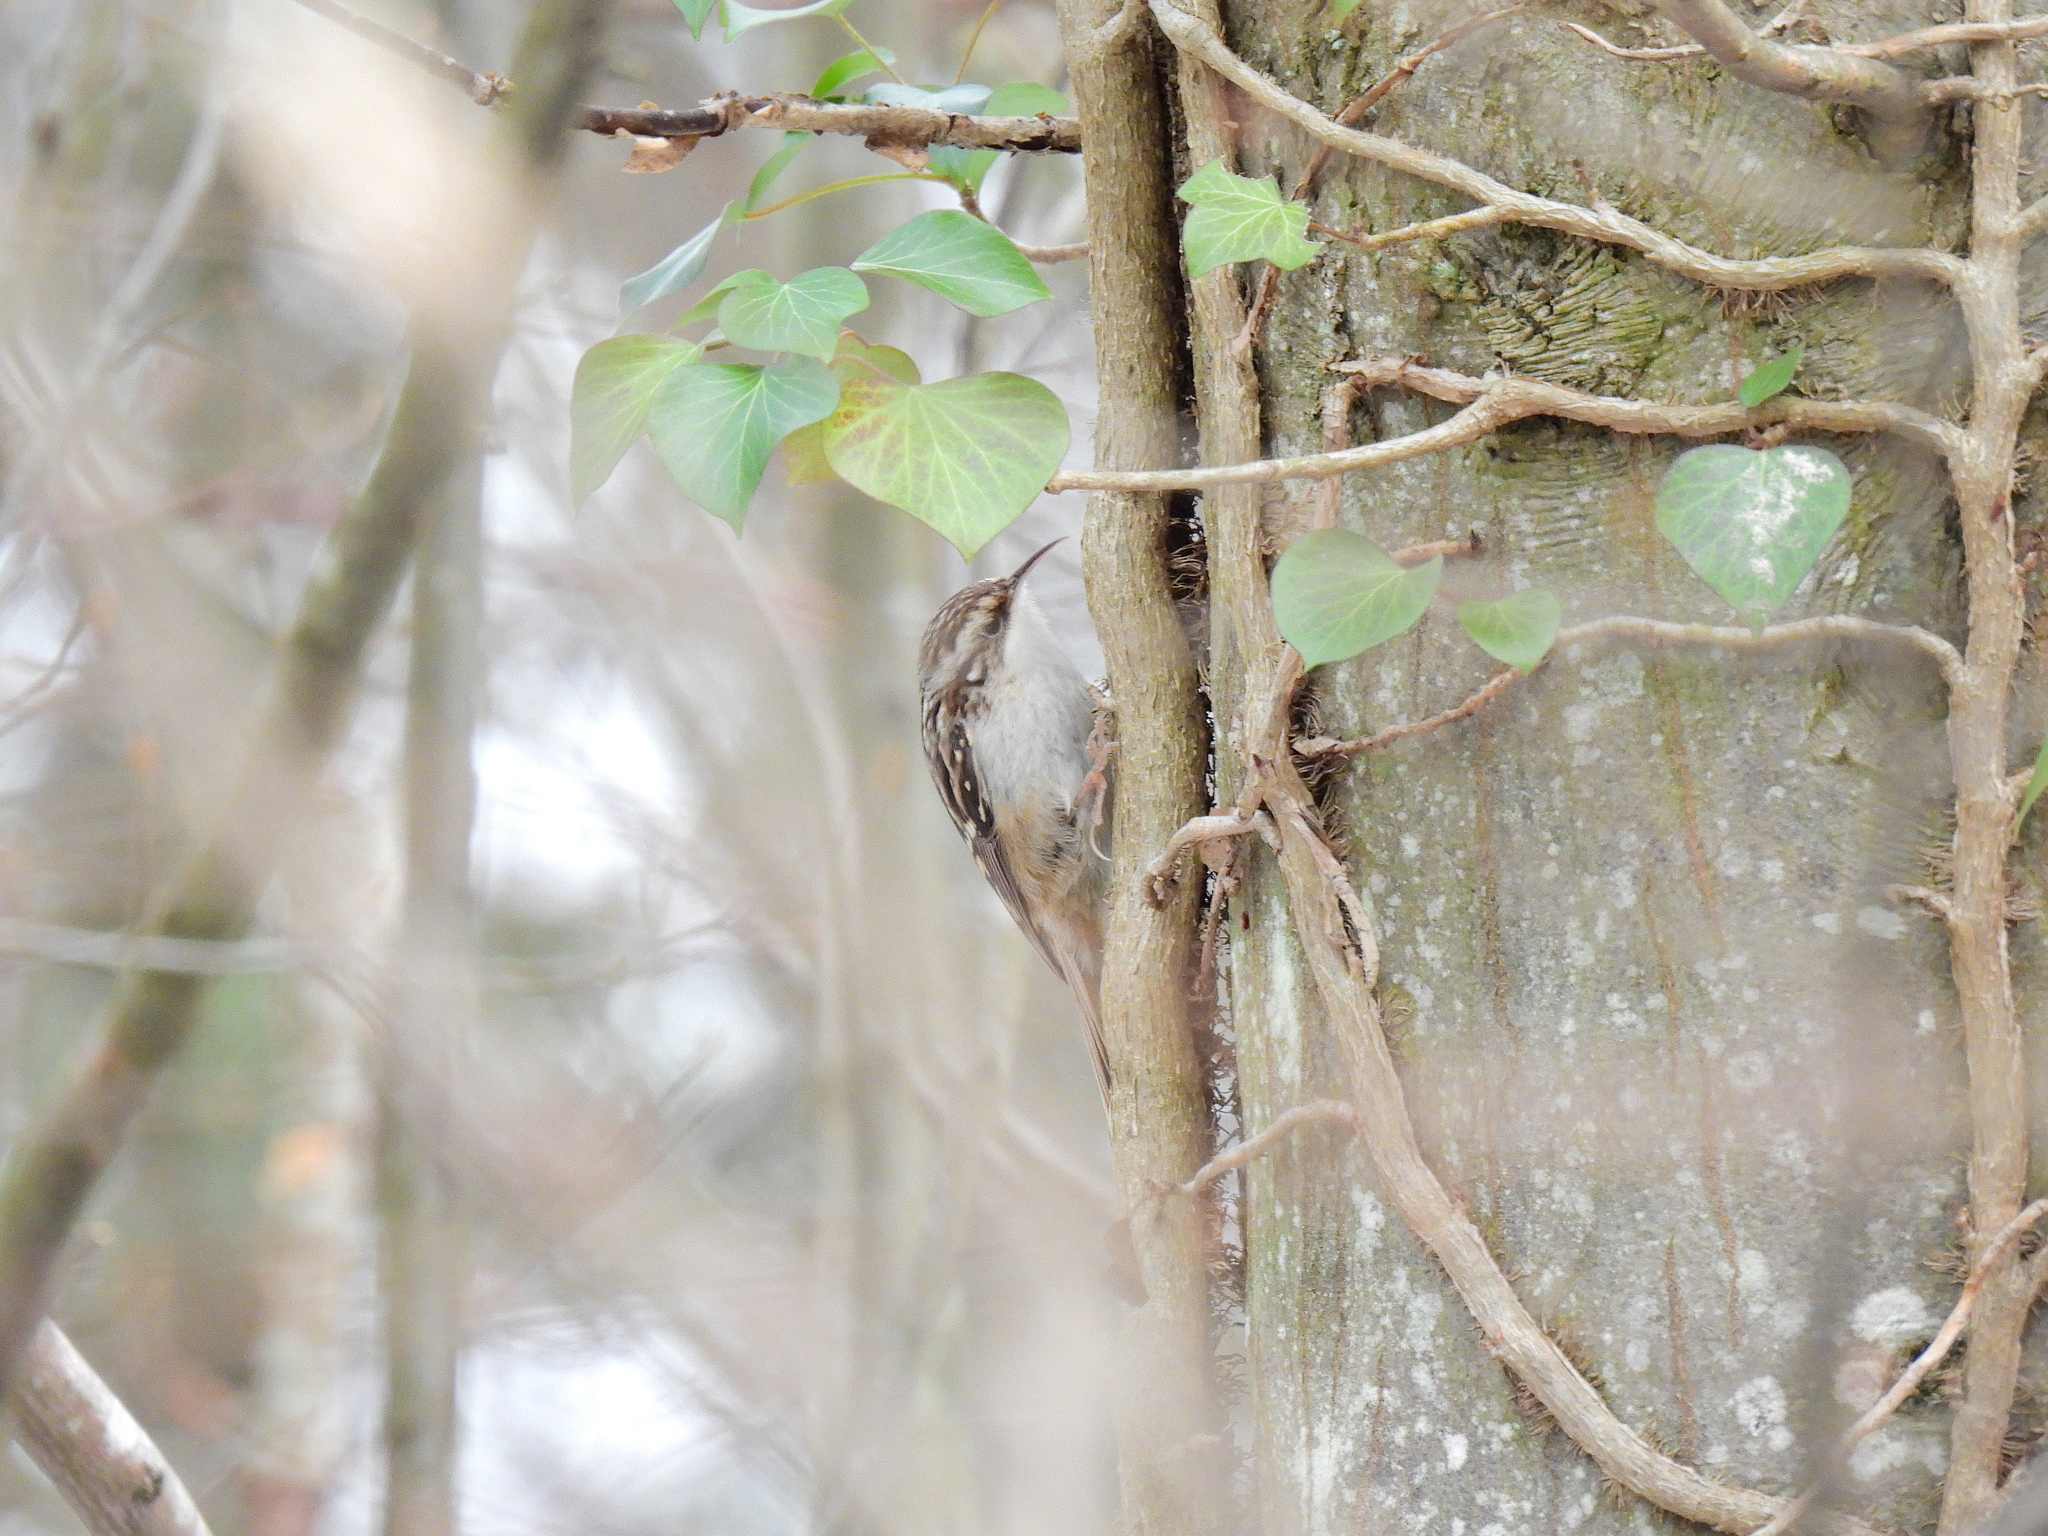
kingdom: Animalia
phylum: Chordata
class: Aves
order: Passeriformes
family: Certhiidae
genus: Certhia
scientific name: Certhia brachydactyla
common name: Short-toed treecreeper
